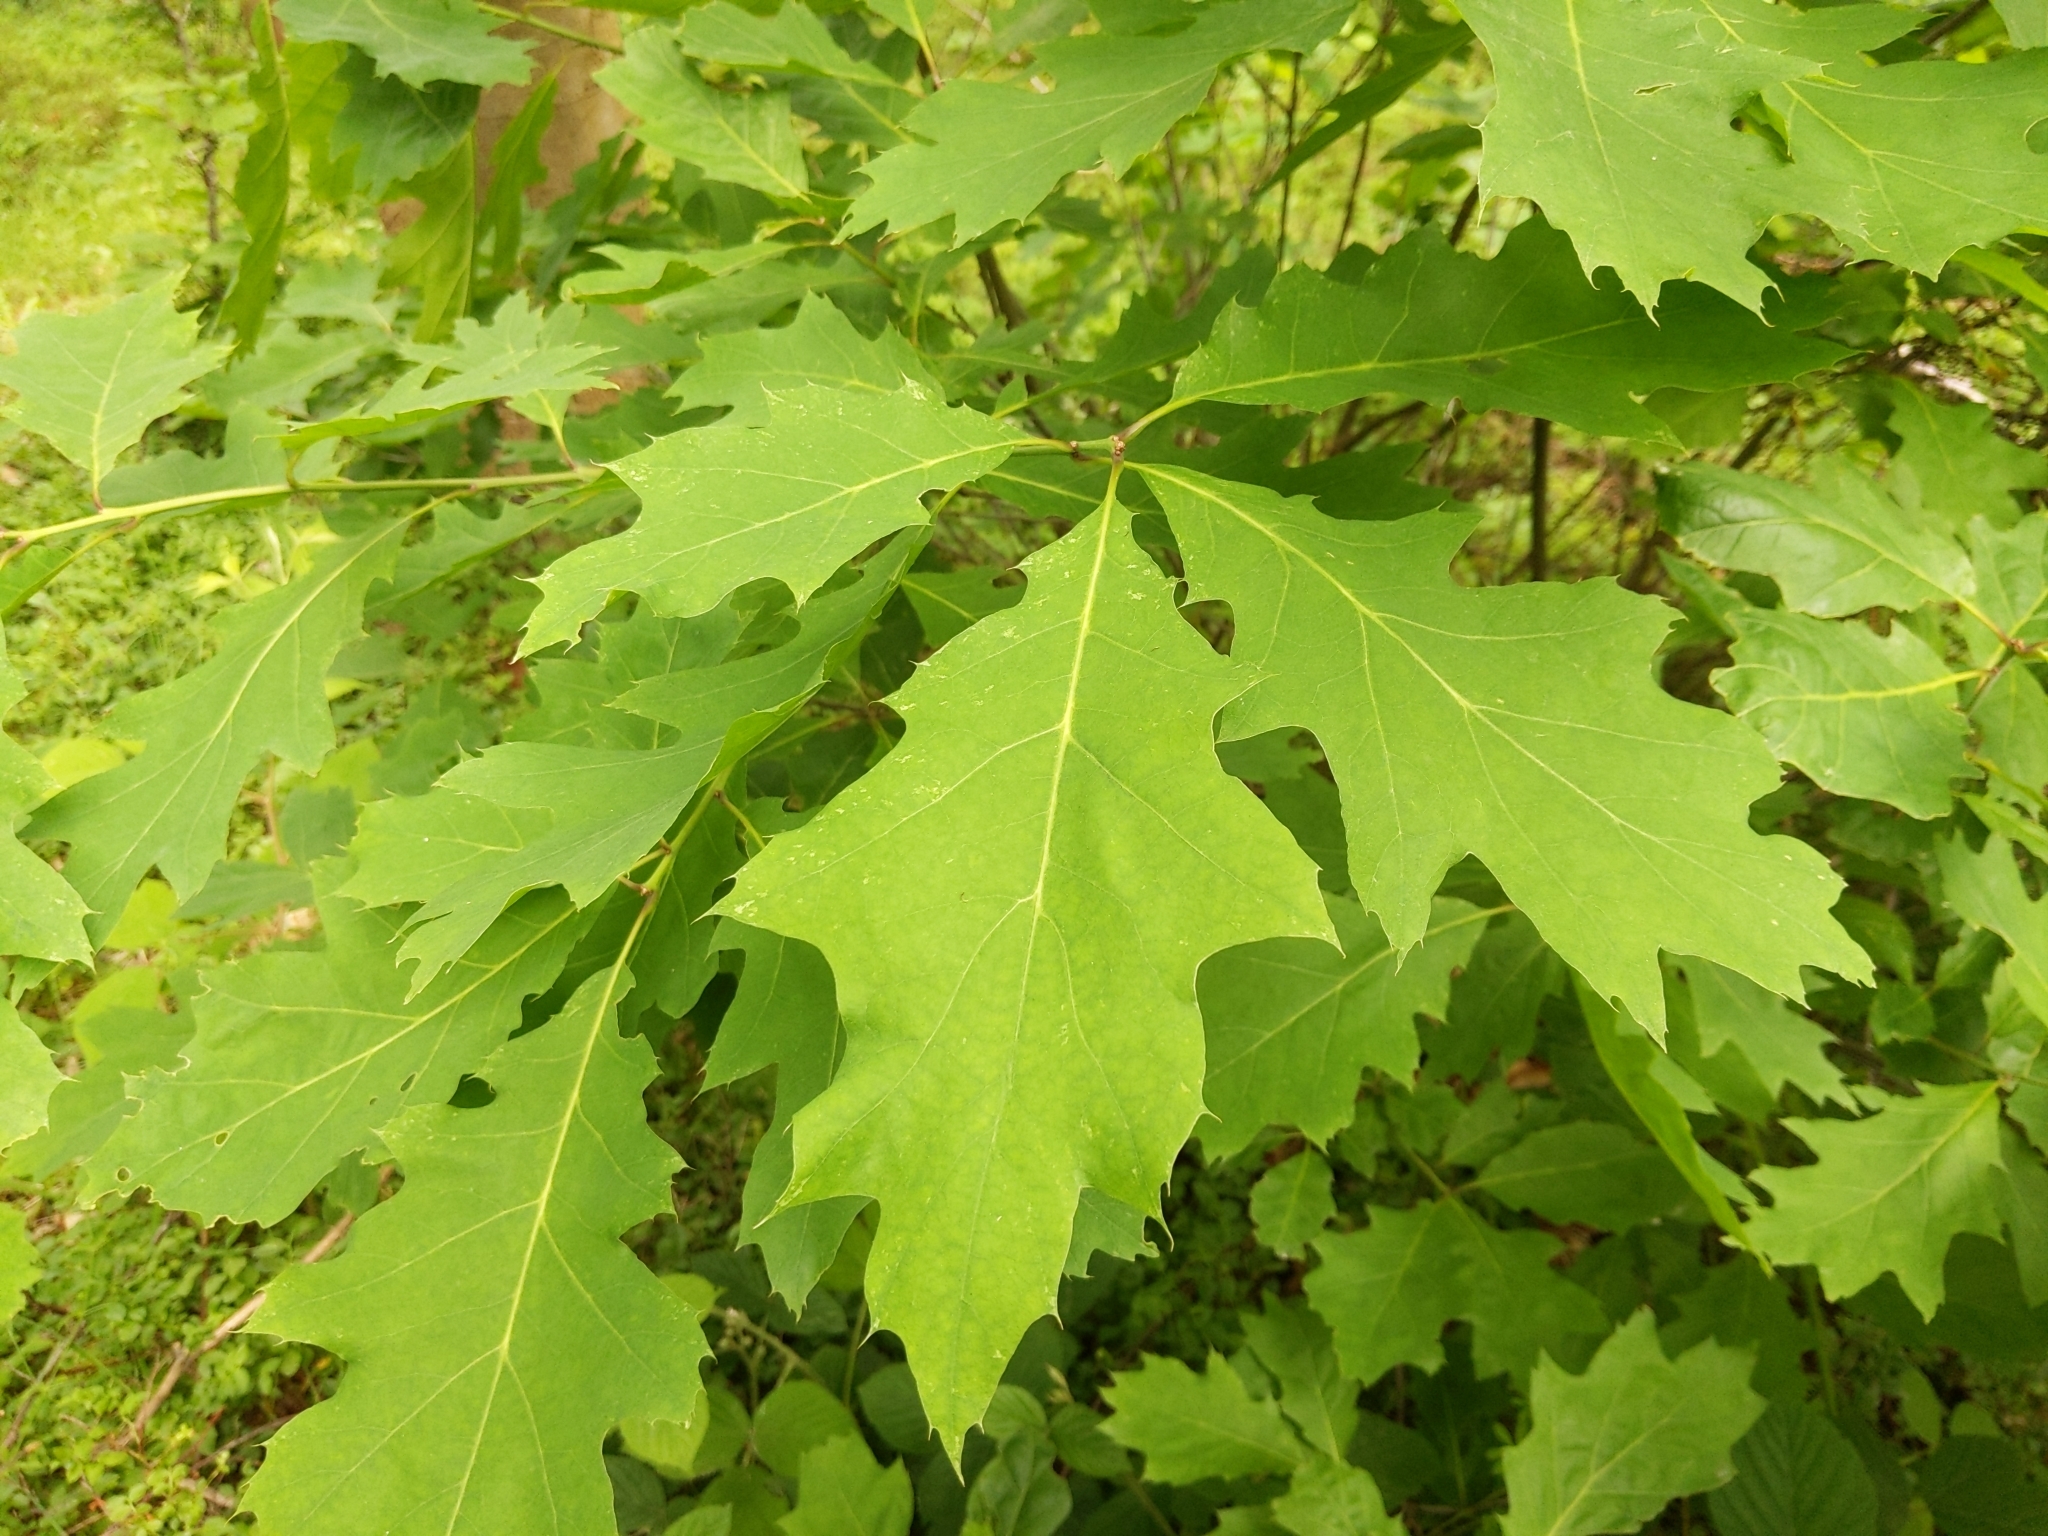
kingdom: Plantae
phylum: Tracheophyta
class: Magnoliopsida
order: Fagales
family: Fagaceae
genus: Quercus
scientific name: Quercus rubra
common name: Red oak
